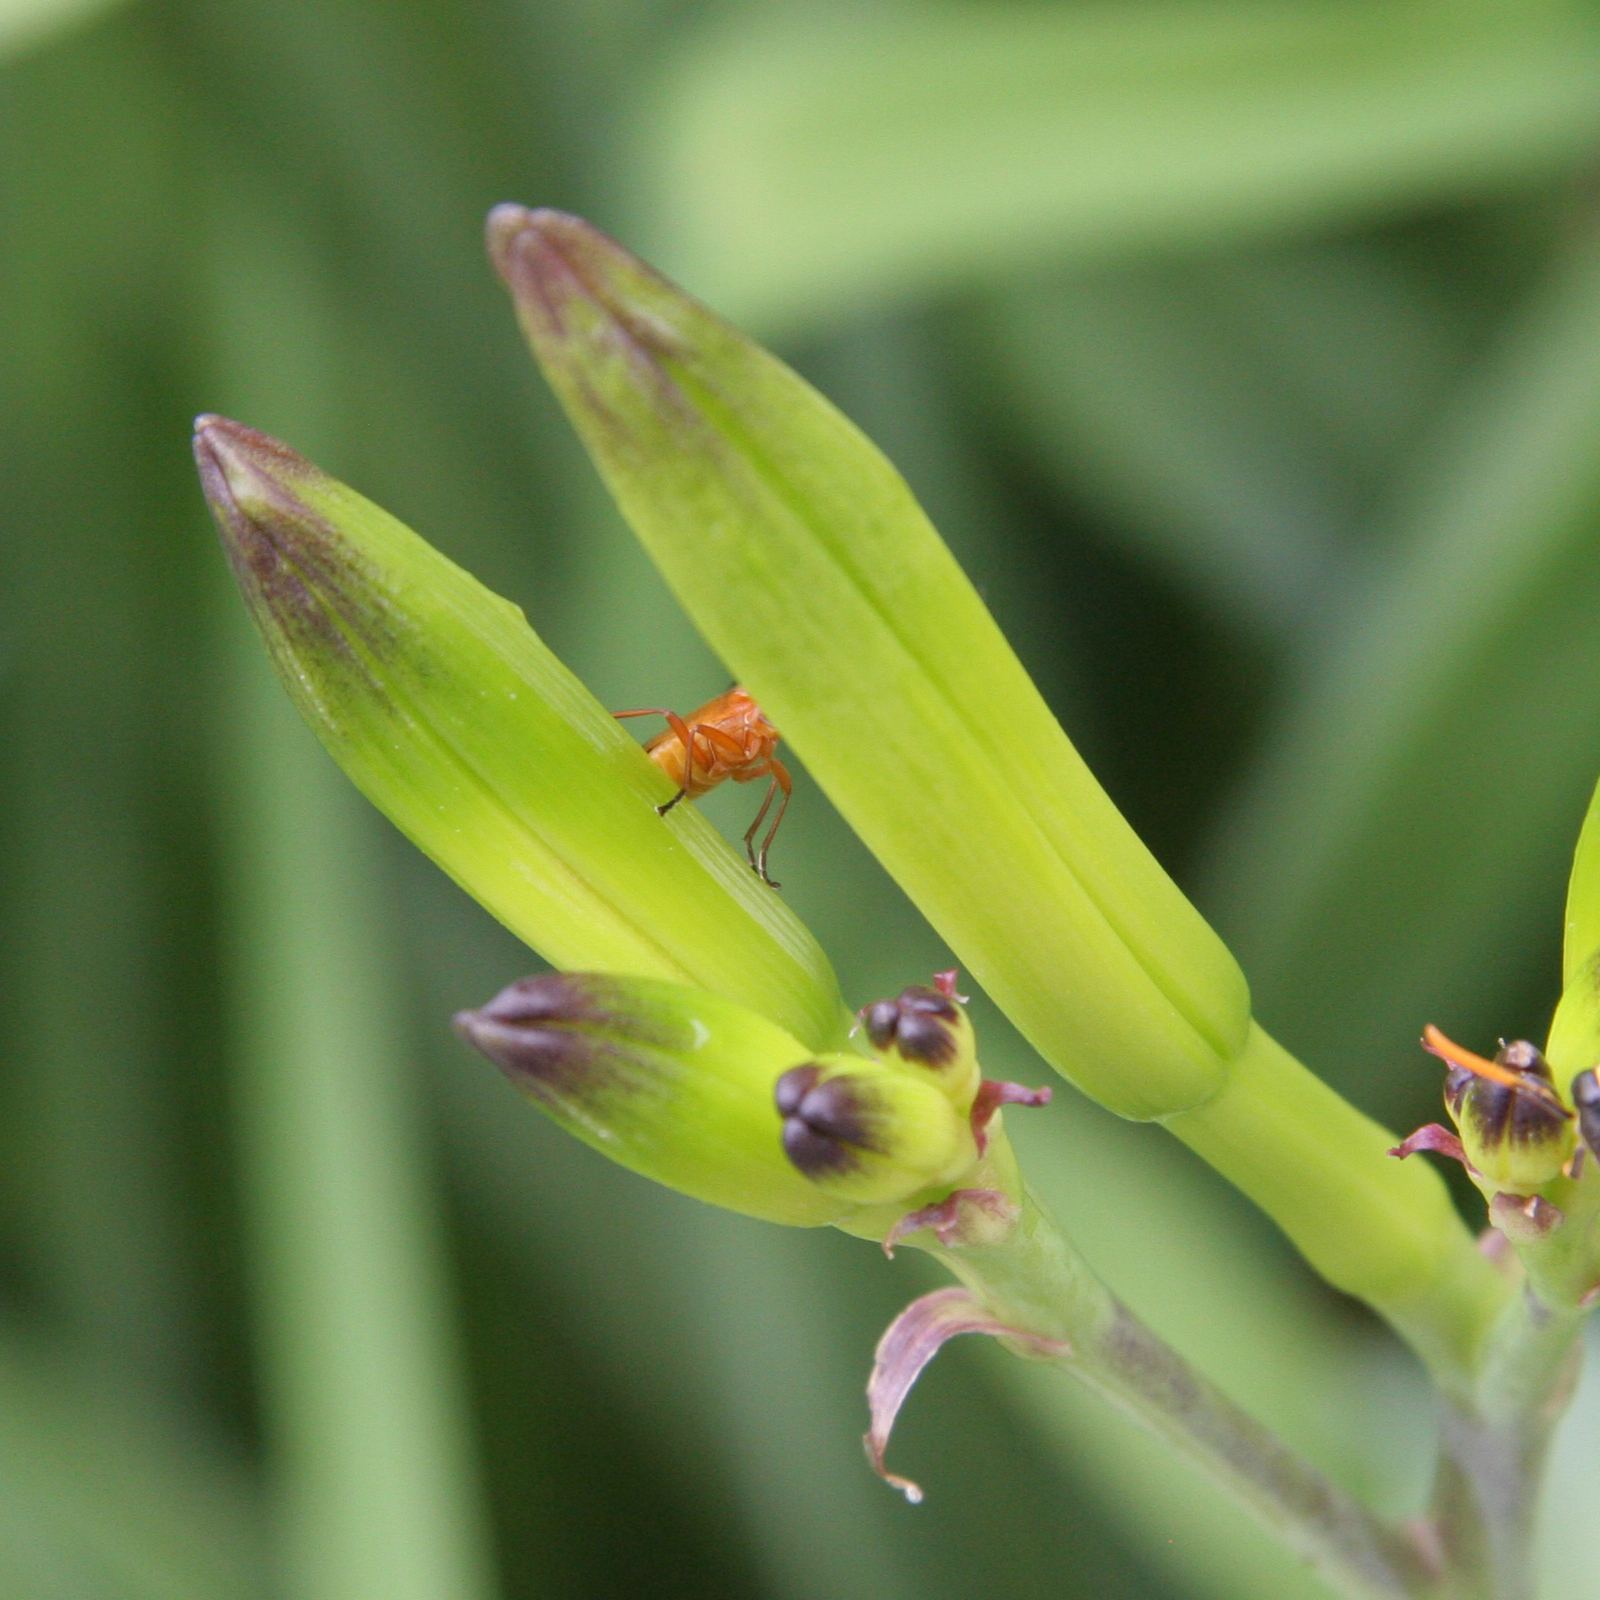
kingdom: Animalia
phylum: Arthropoda
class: Insecta
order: Coleoptera
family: Cantharidae
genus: Rhagonycha
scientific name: Rhagonycha fulva
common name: Common red soldier beetle
